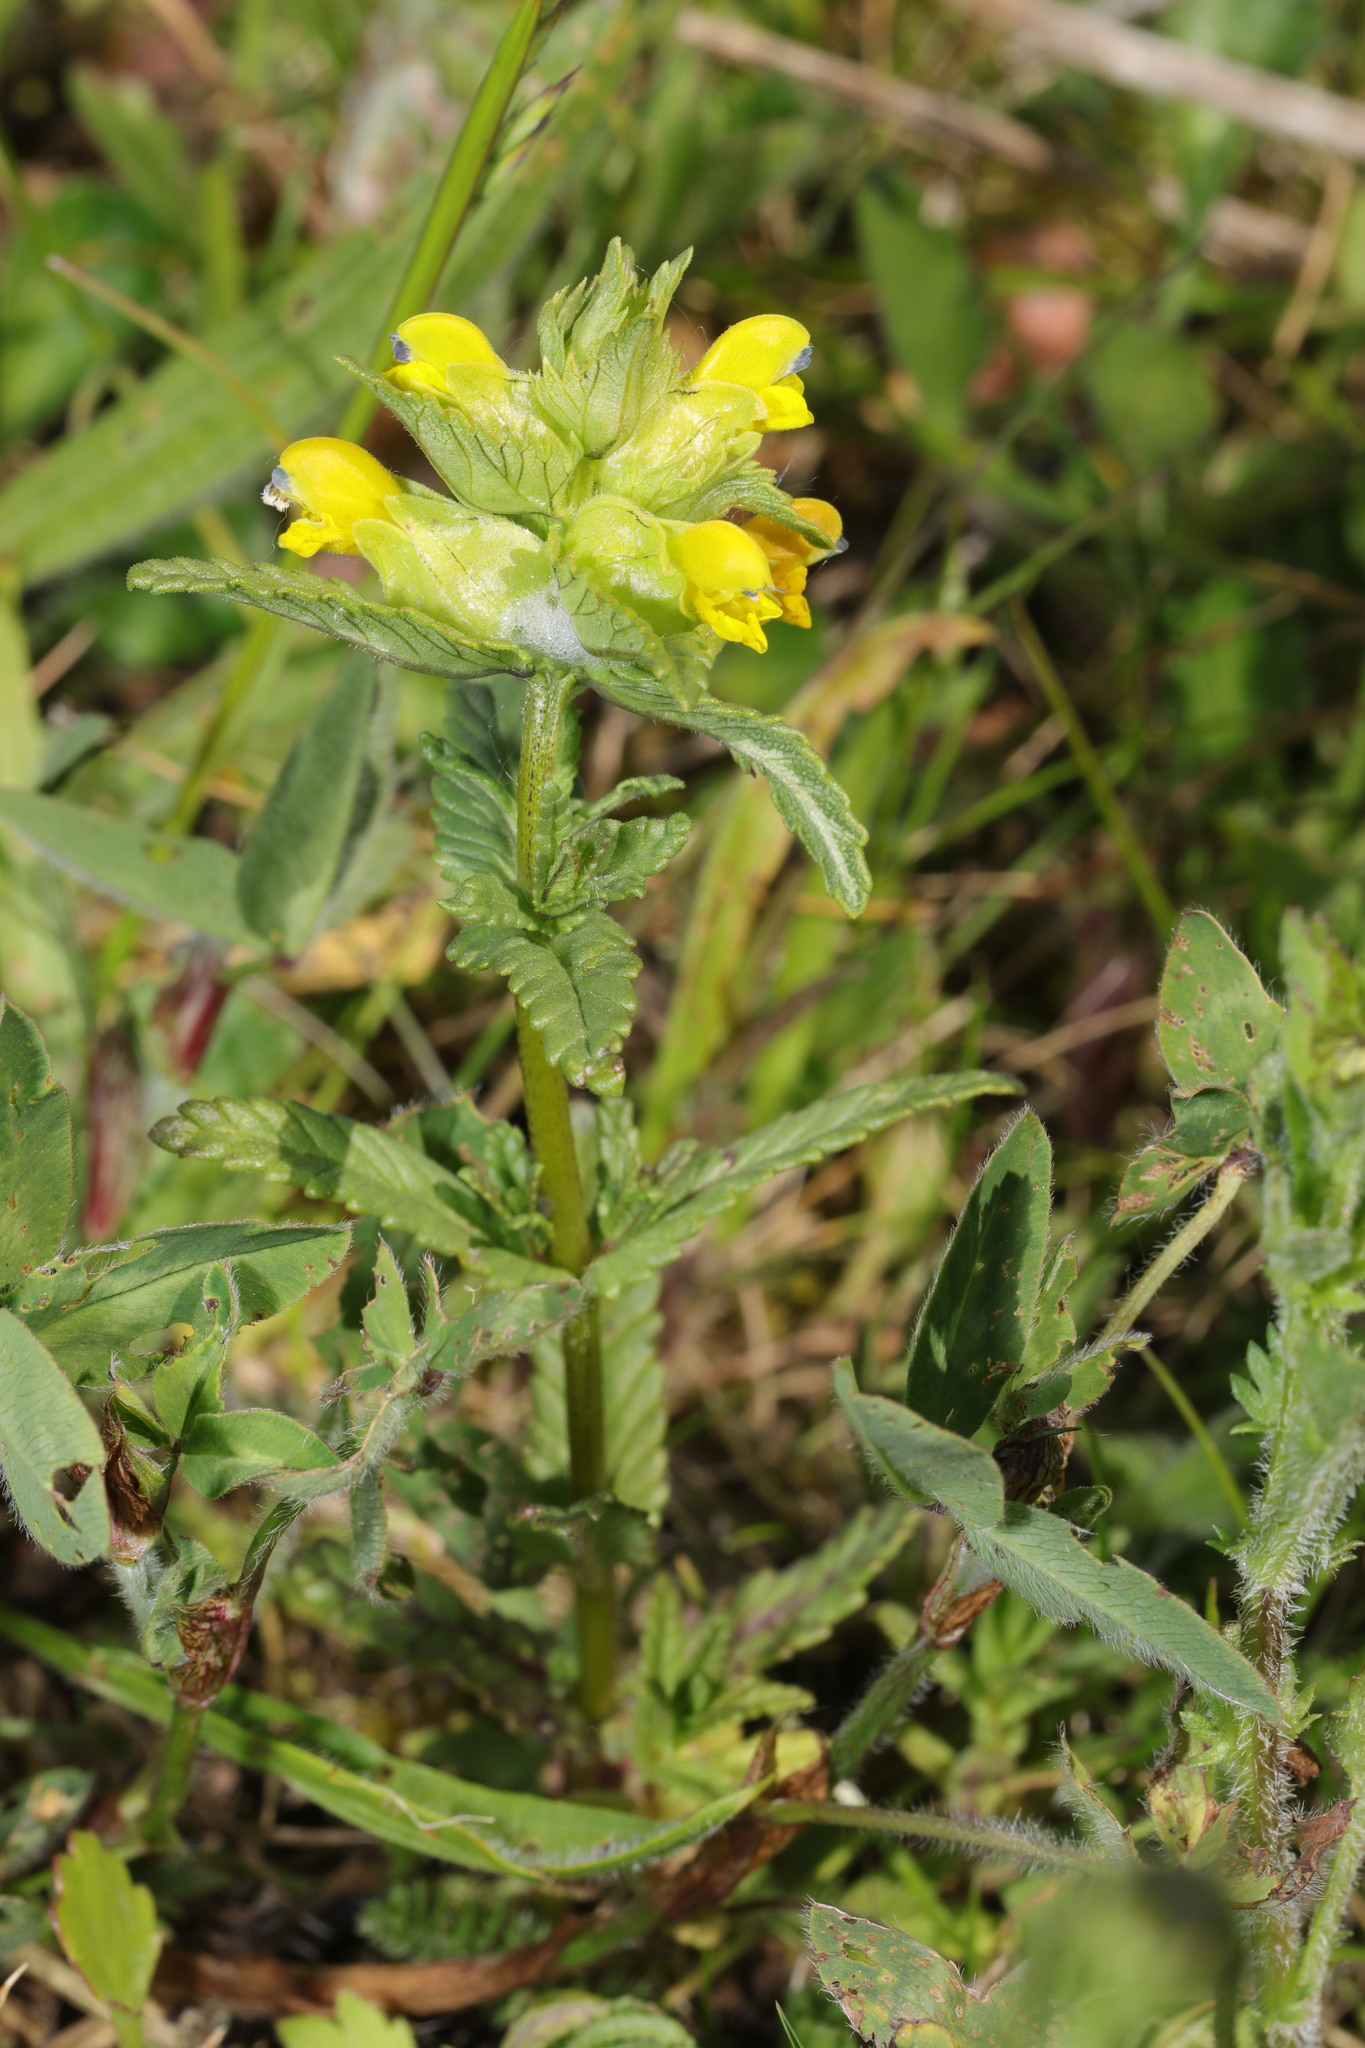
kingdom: Plantae
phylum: Tracheophyta
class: Magnoliopsida
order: Lamiales
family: Orobanchaceae
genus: Rhinanthus
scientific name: Rhinanthus minor
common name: Yellow-rattle
